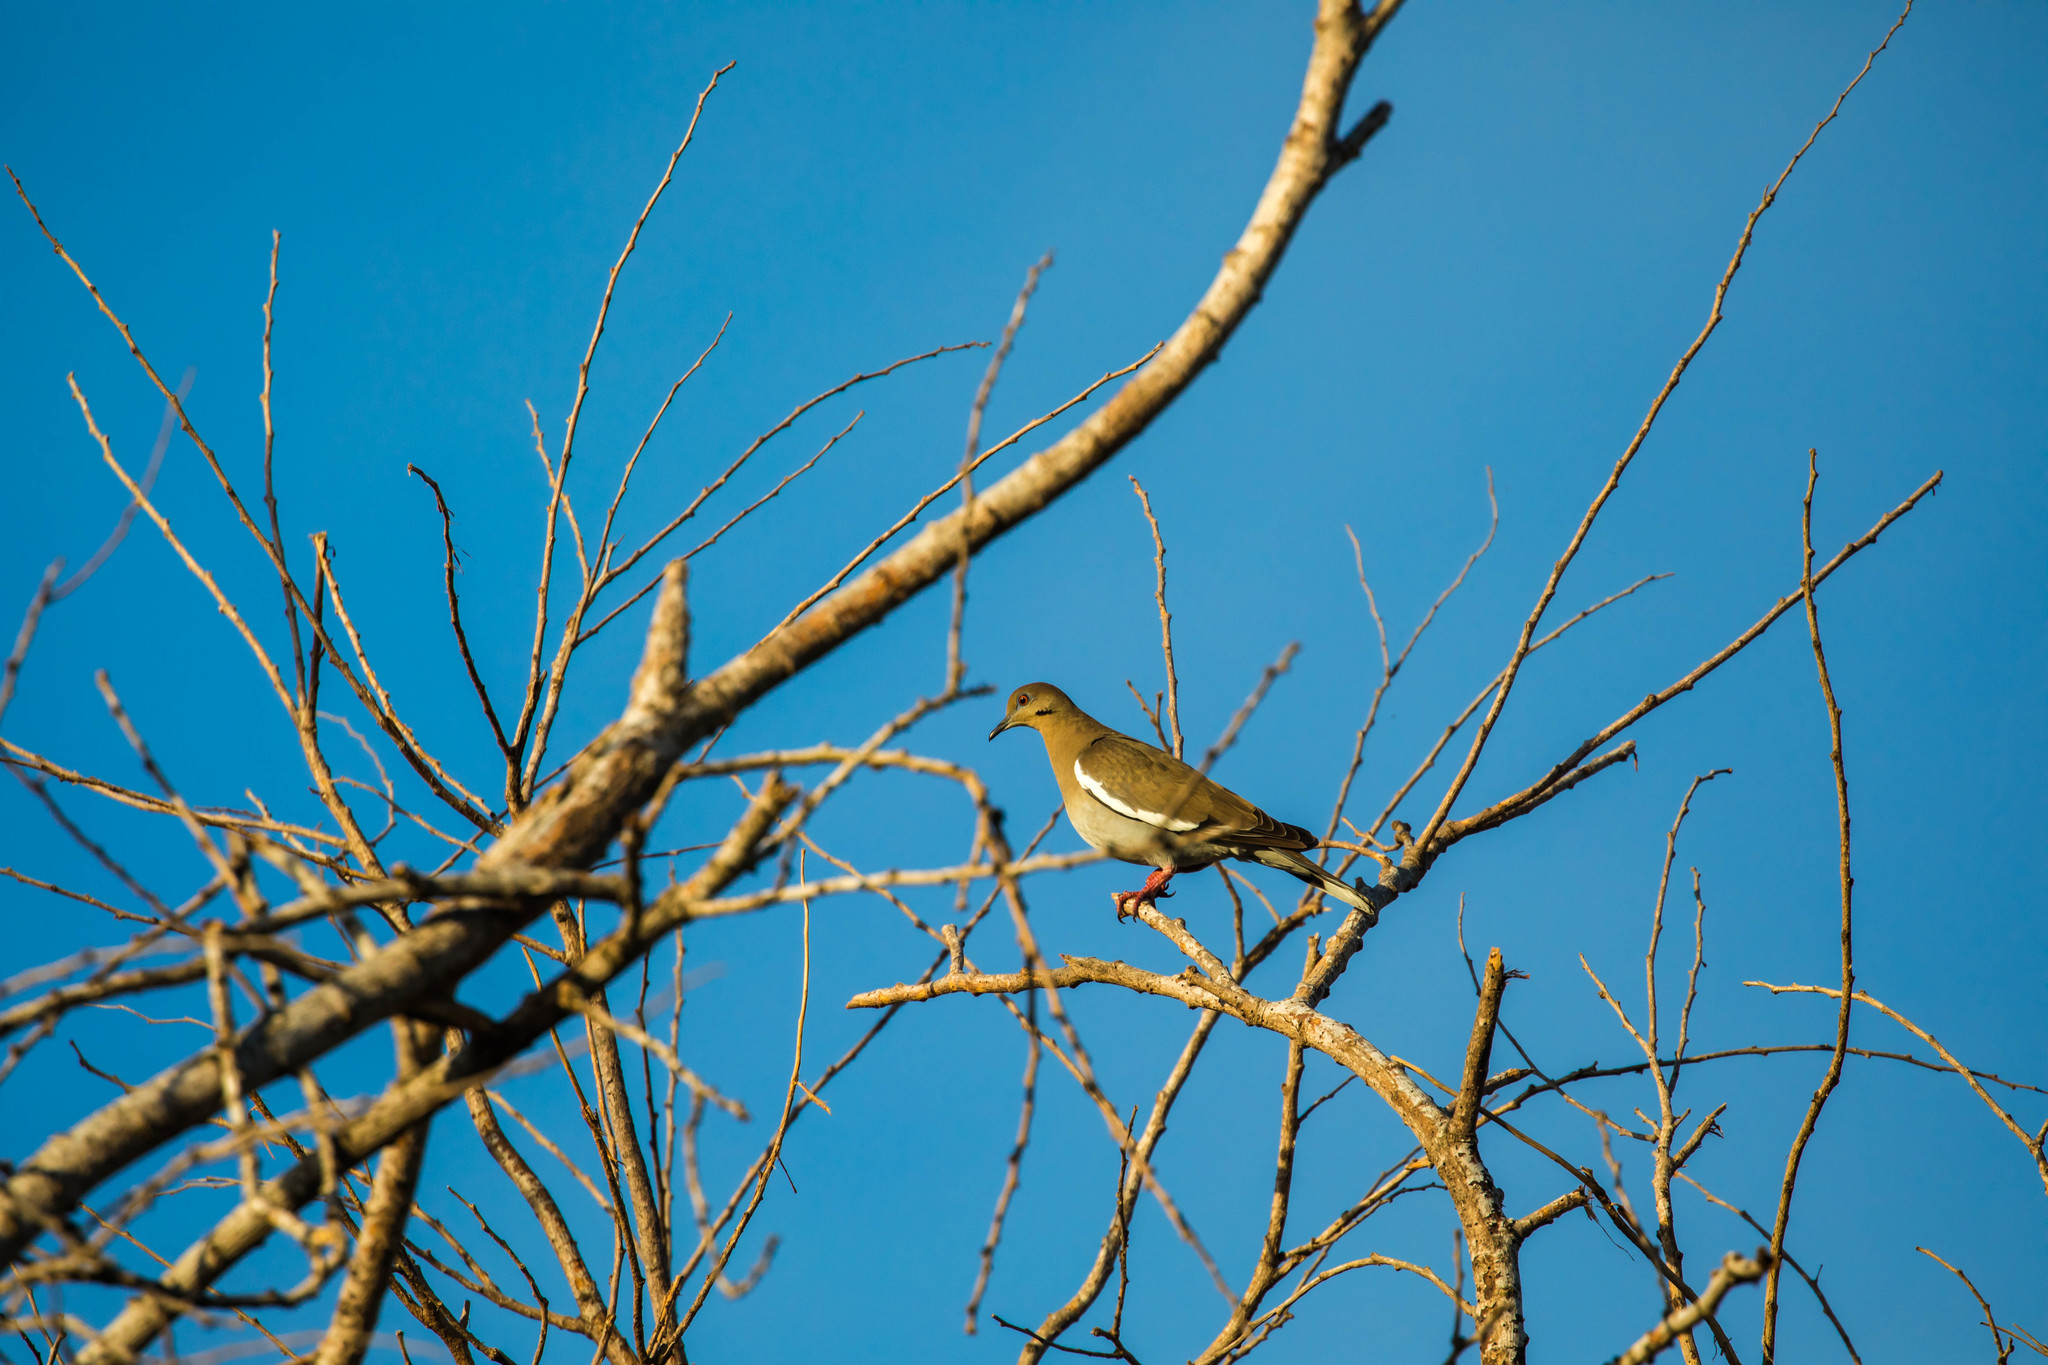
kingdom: Animalia
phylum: Chordata
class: Aves
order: Columbiformes
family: Columbidae
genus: Zenaida
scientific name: Zenaida asiatica
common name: White-winged dove
